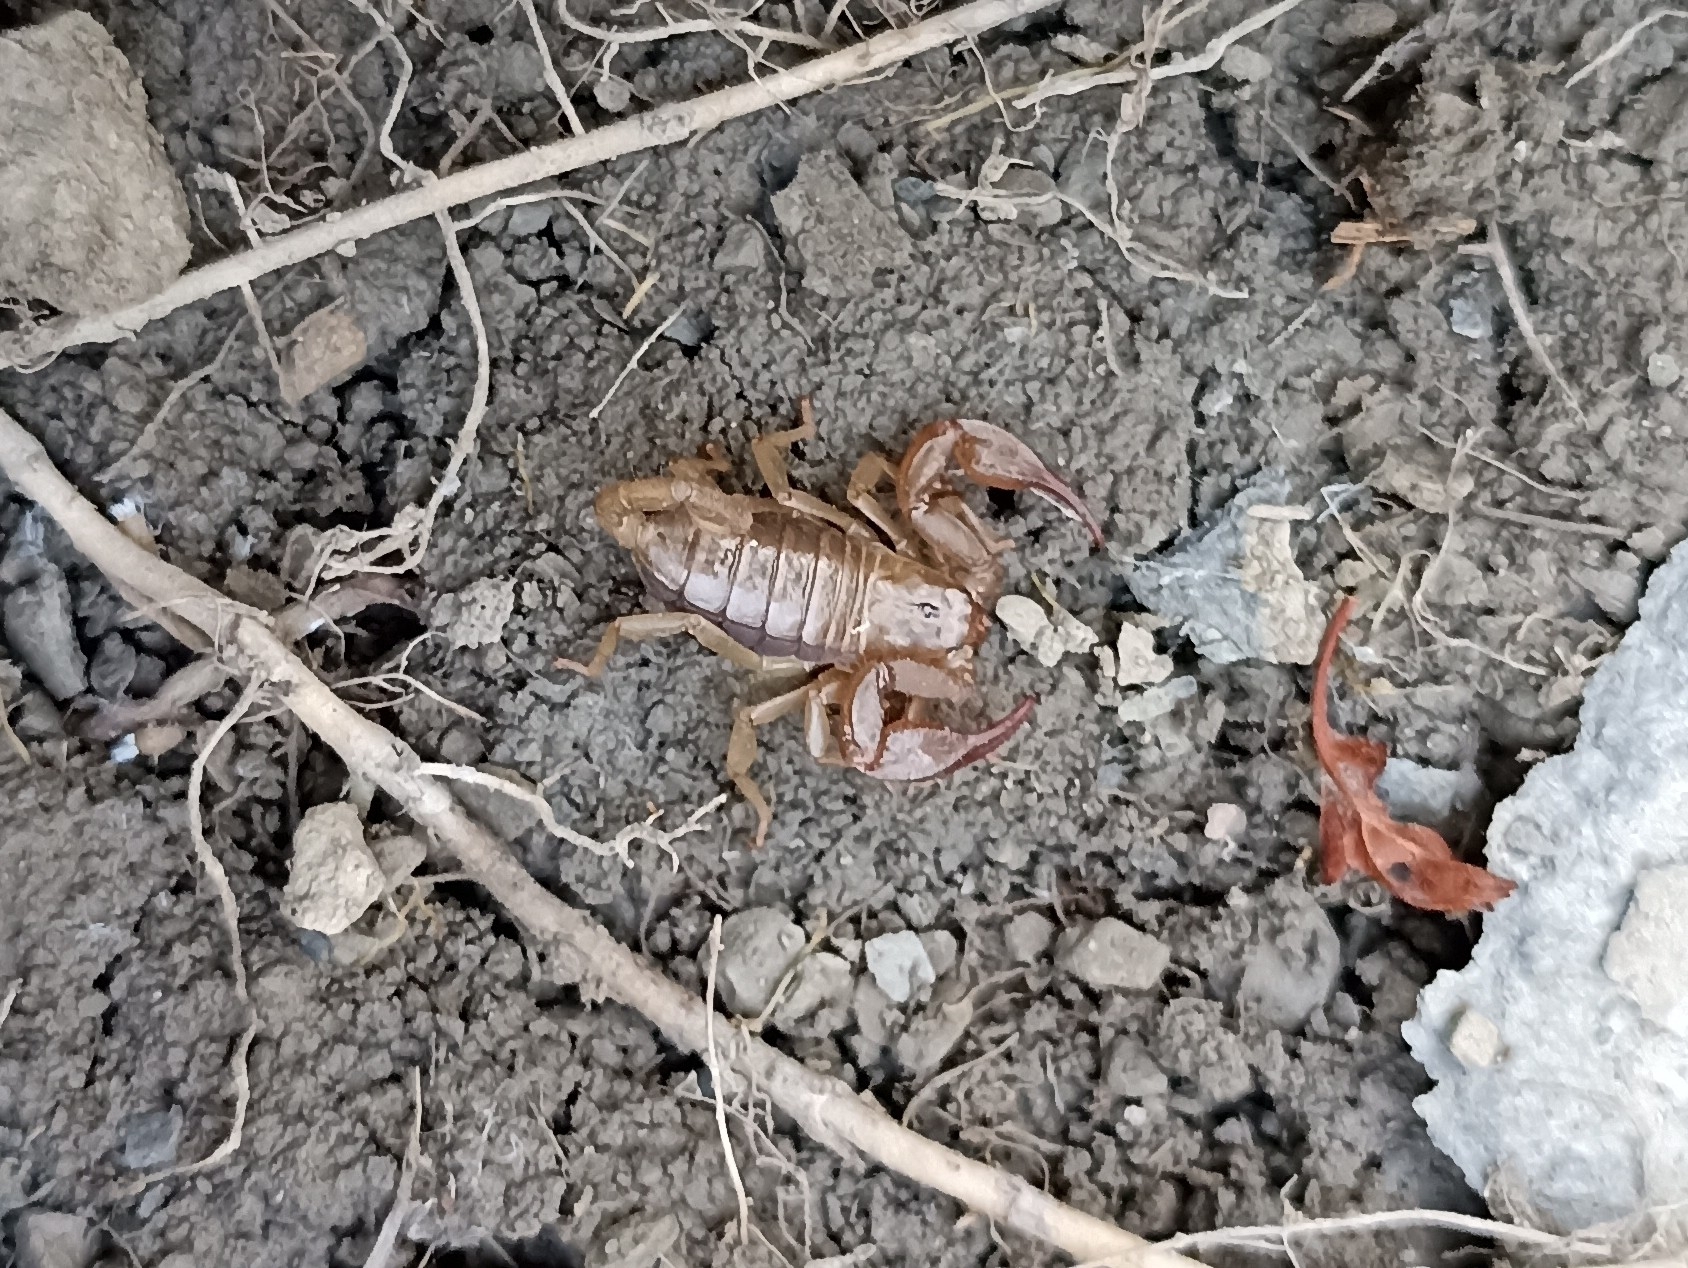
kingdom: Animalia
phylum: Arthropoda
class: Arachnida
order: Scorpiones
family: Euscorpiidae
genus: Euscorpius
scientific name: Euscorpius
